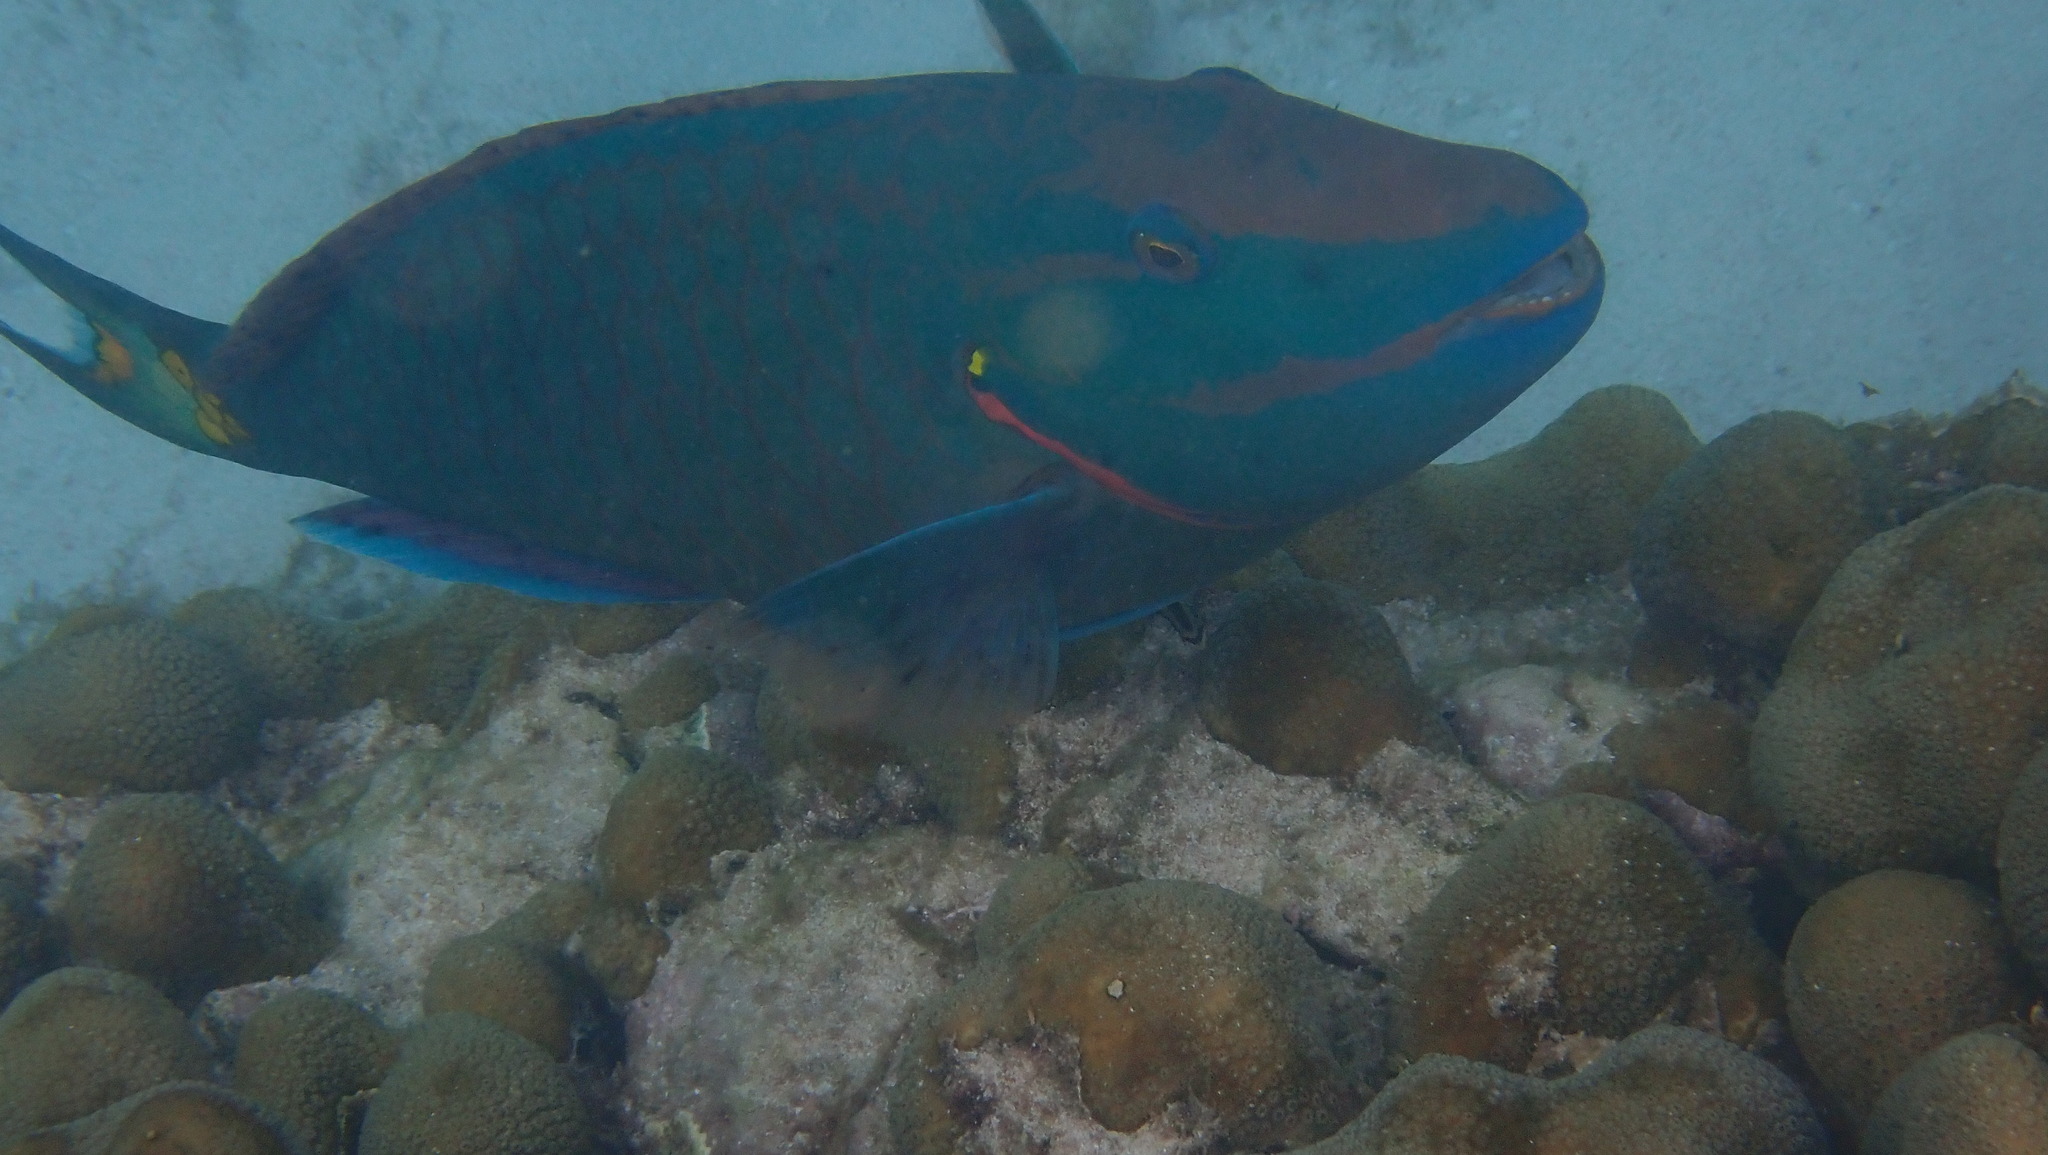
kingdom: Animalia
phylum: Chordata
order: Perciformes
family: Scaridae
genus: Sparisoma
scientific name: Sparisoma viride
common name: Stoplight parrotfish
